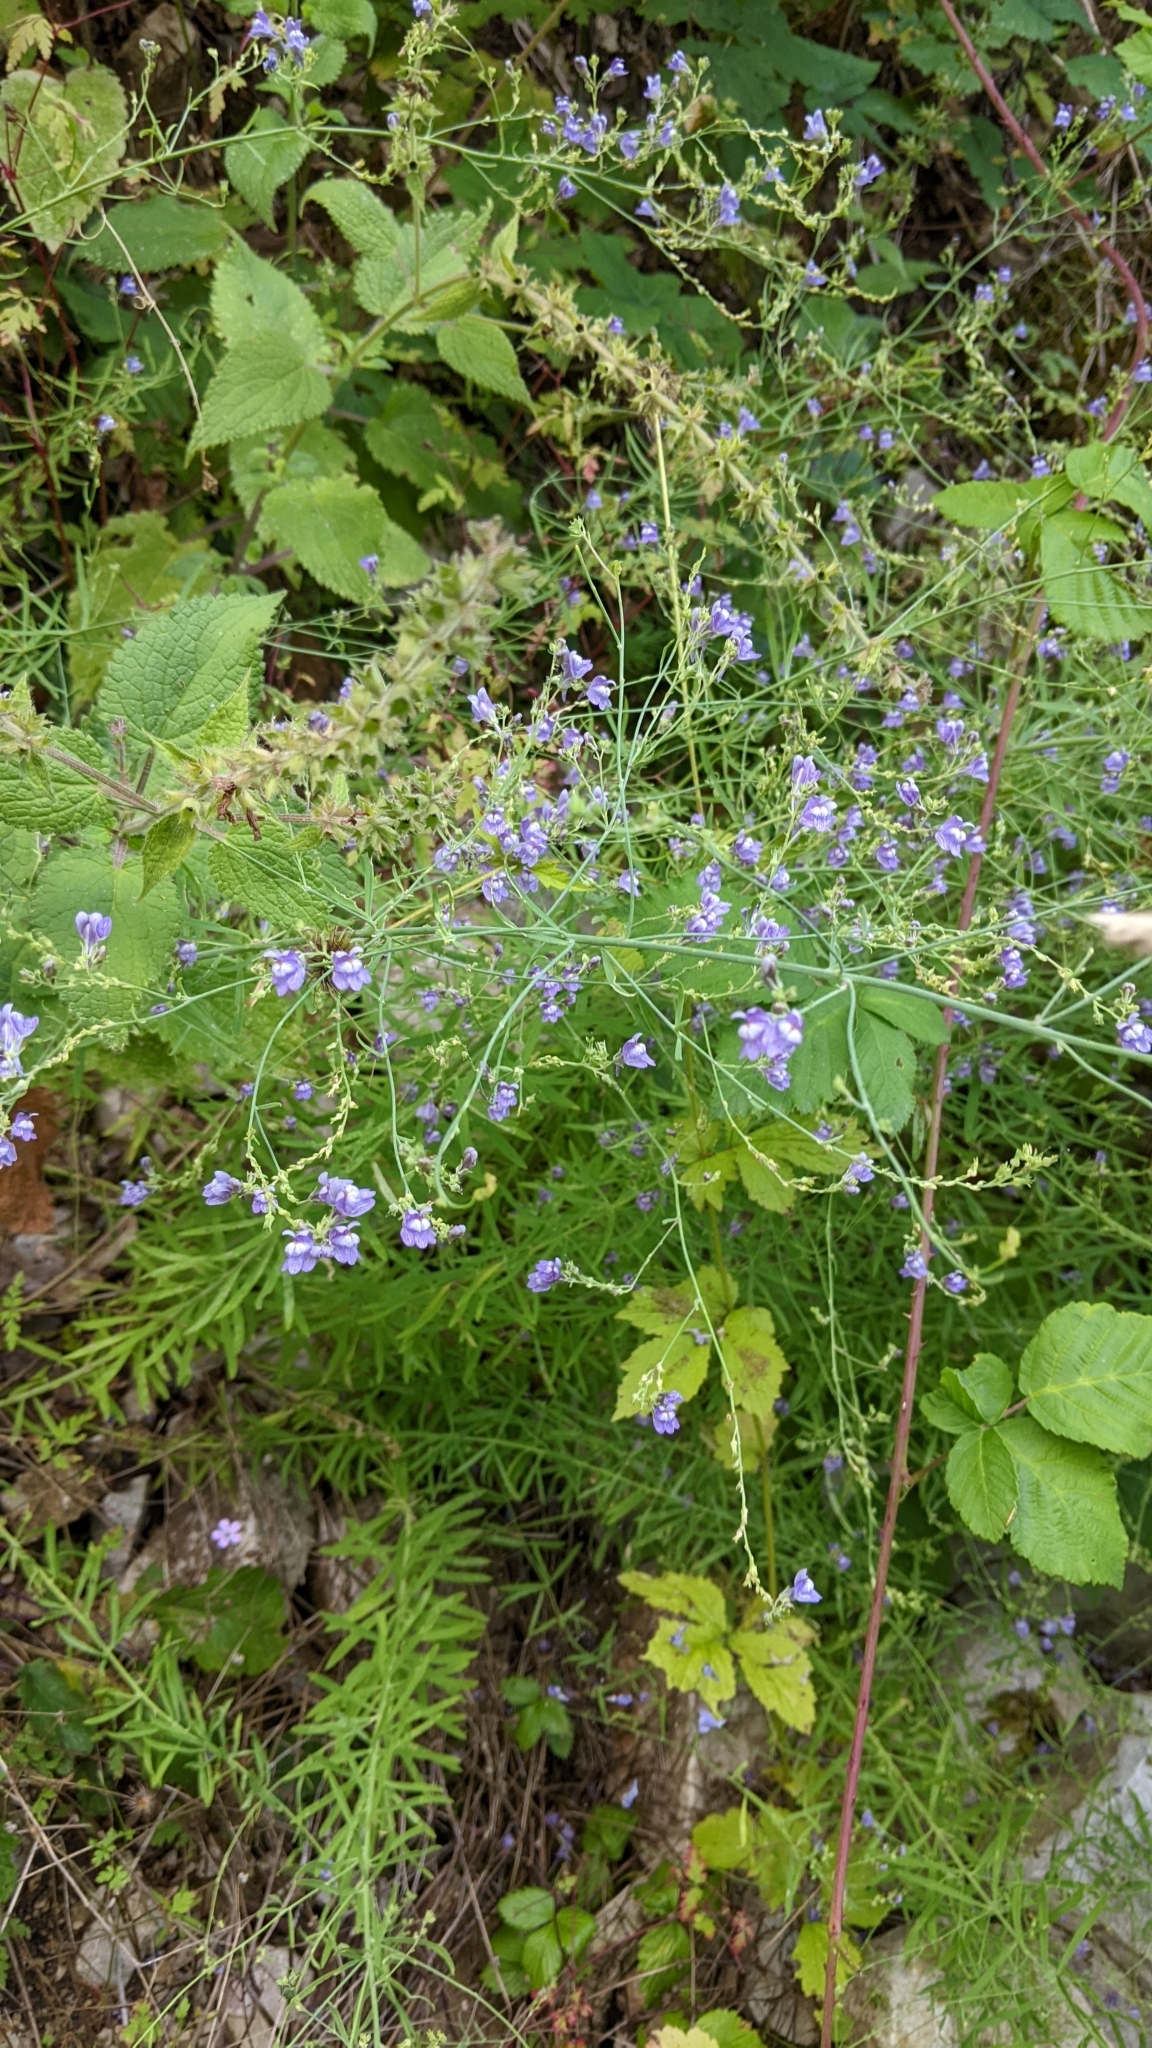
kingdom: Plantae
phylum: Tracheophyta
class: Magnoliopsida
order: Lamiales
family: Plantaginaceae
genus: Linaria
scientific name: Linaria repens
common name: Pale toadflax
